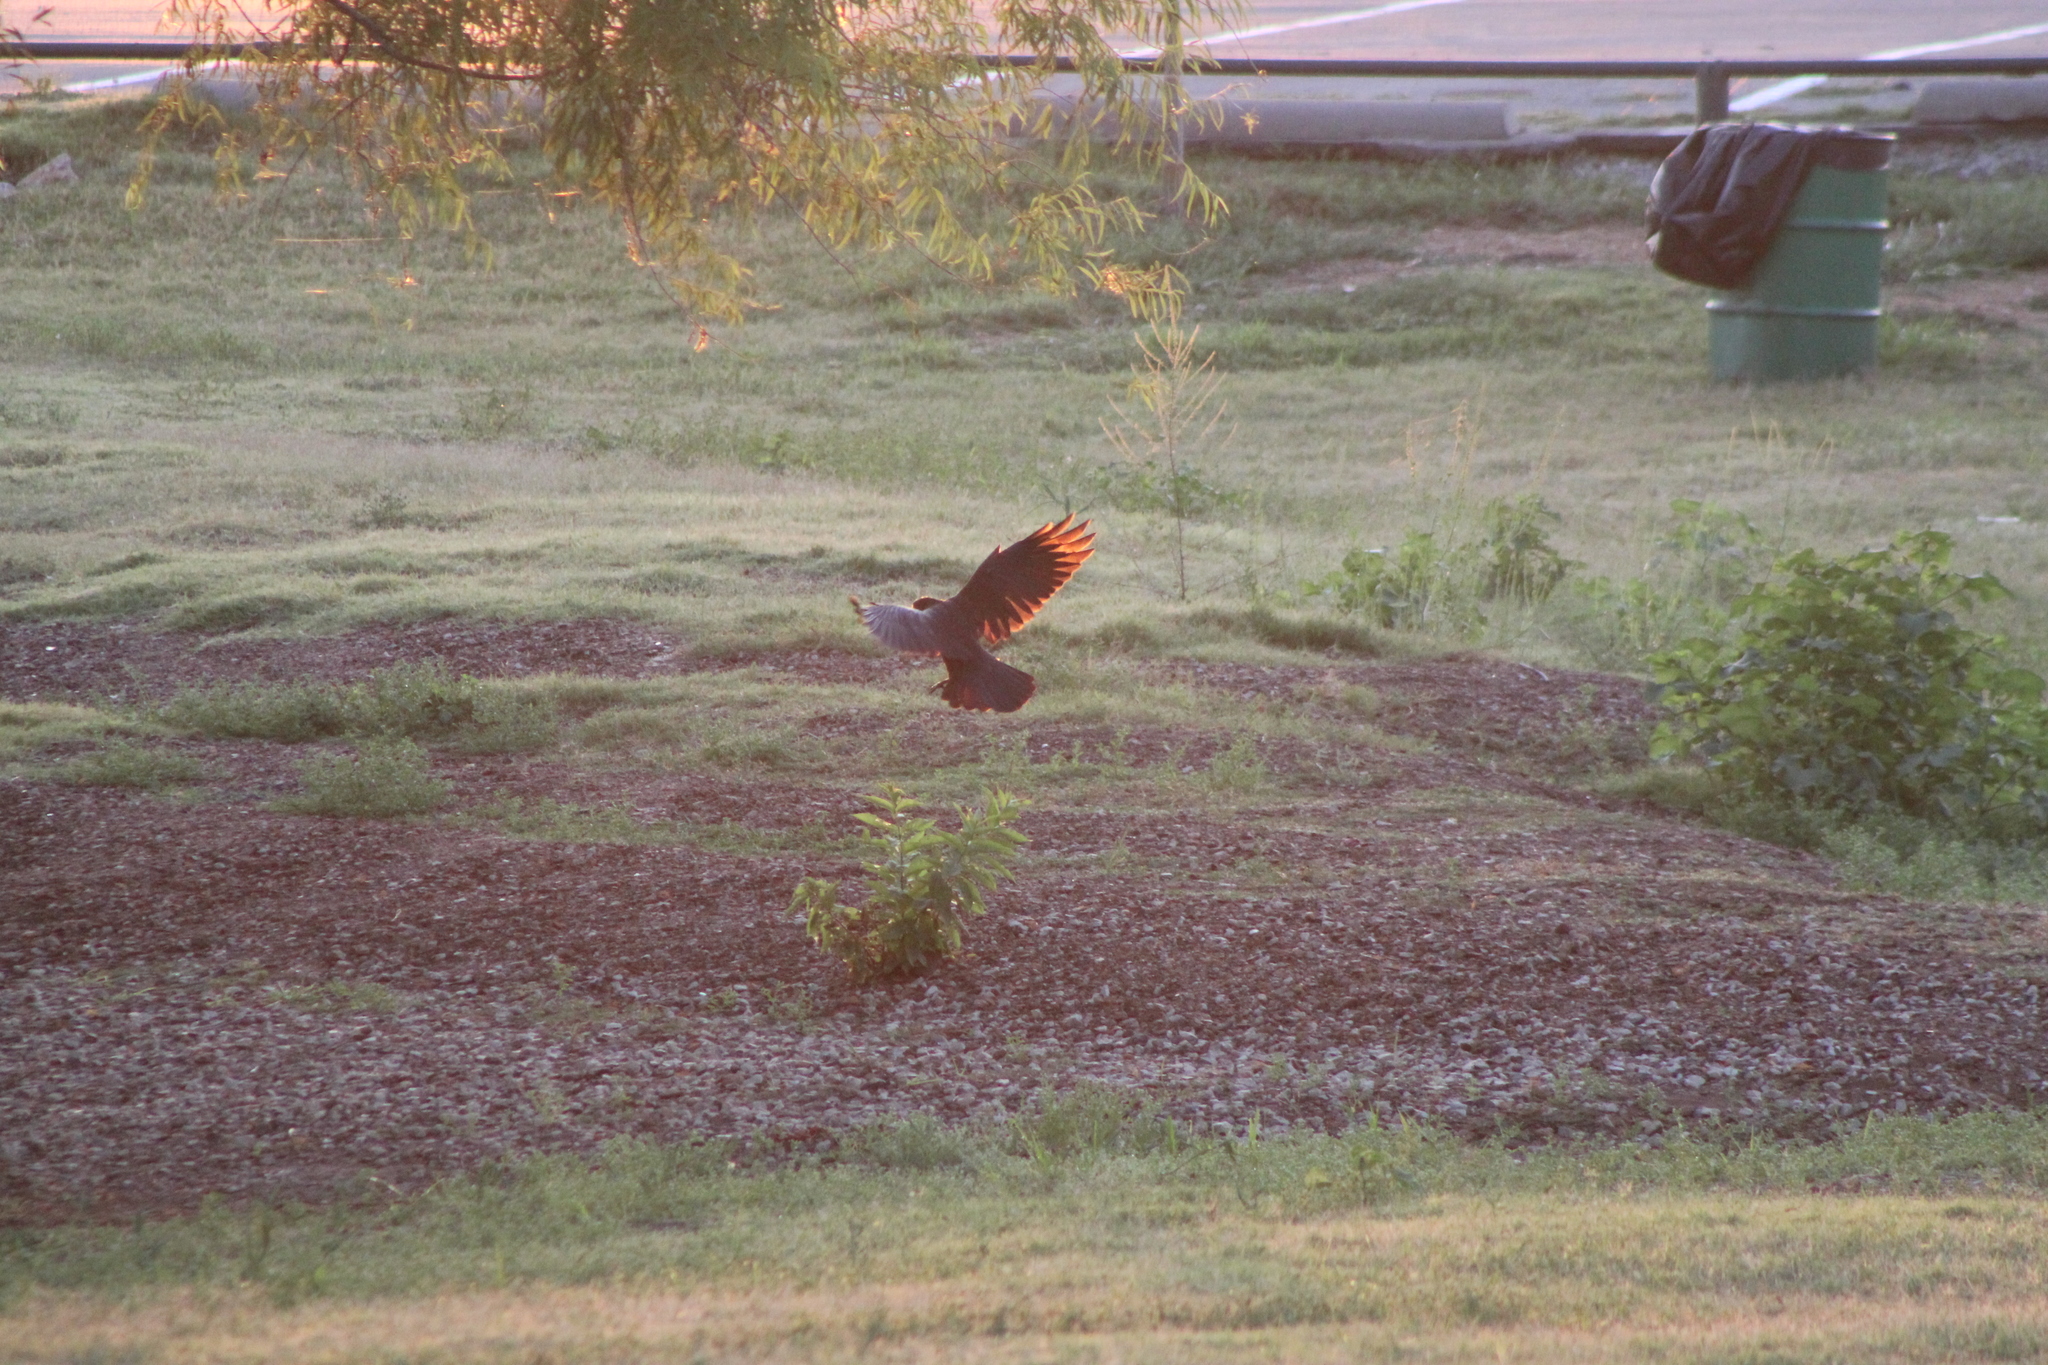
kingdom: Animalia
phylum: Chordata
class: Aves
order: Passeriformes
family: Corvidae
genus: Corvus
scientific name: Corvus brachyrhynchos
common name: American crow
